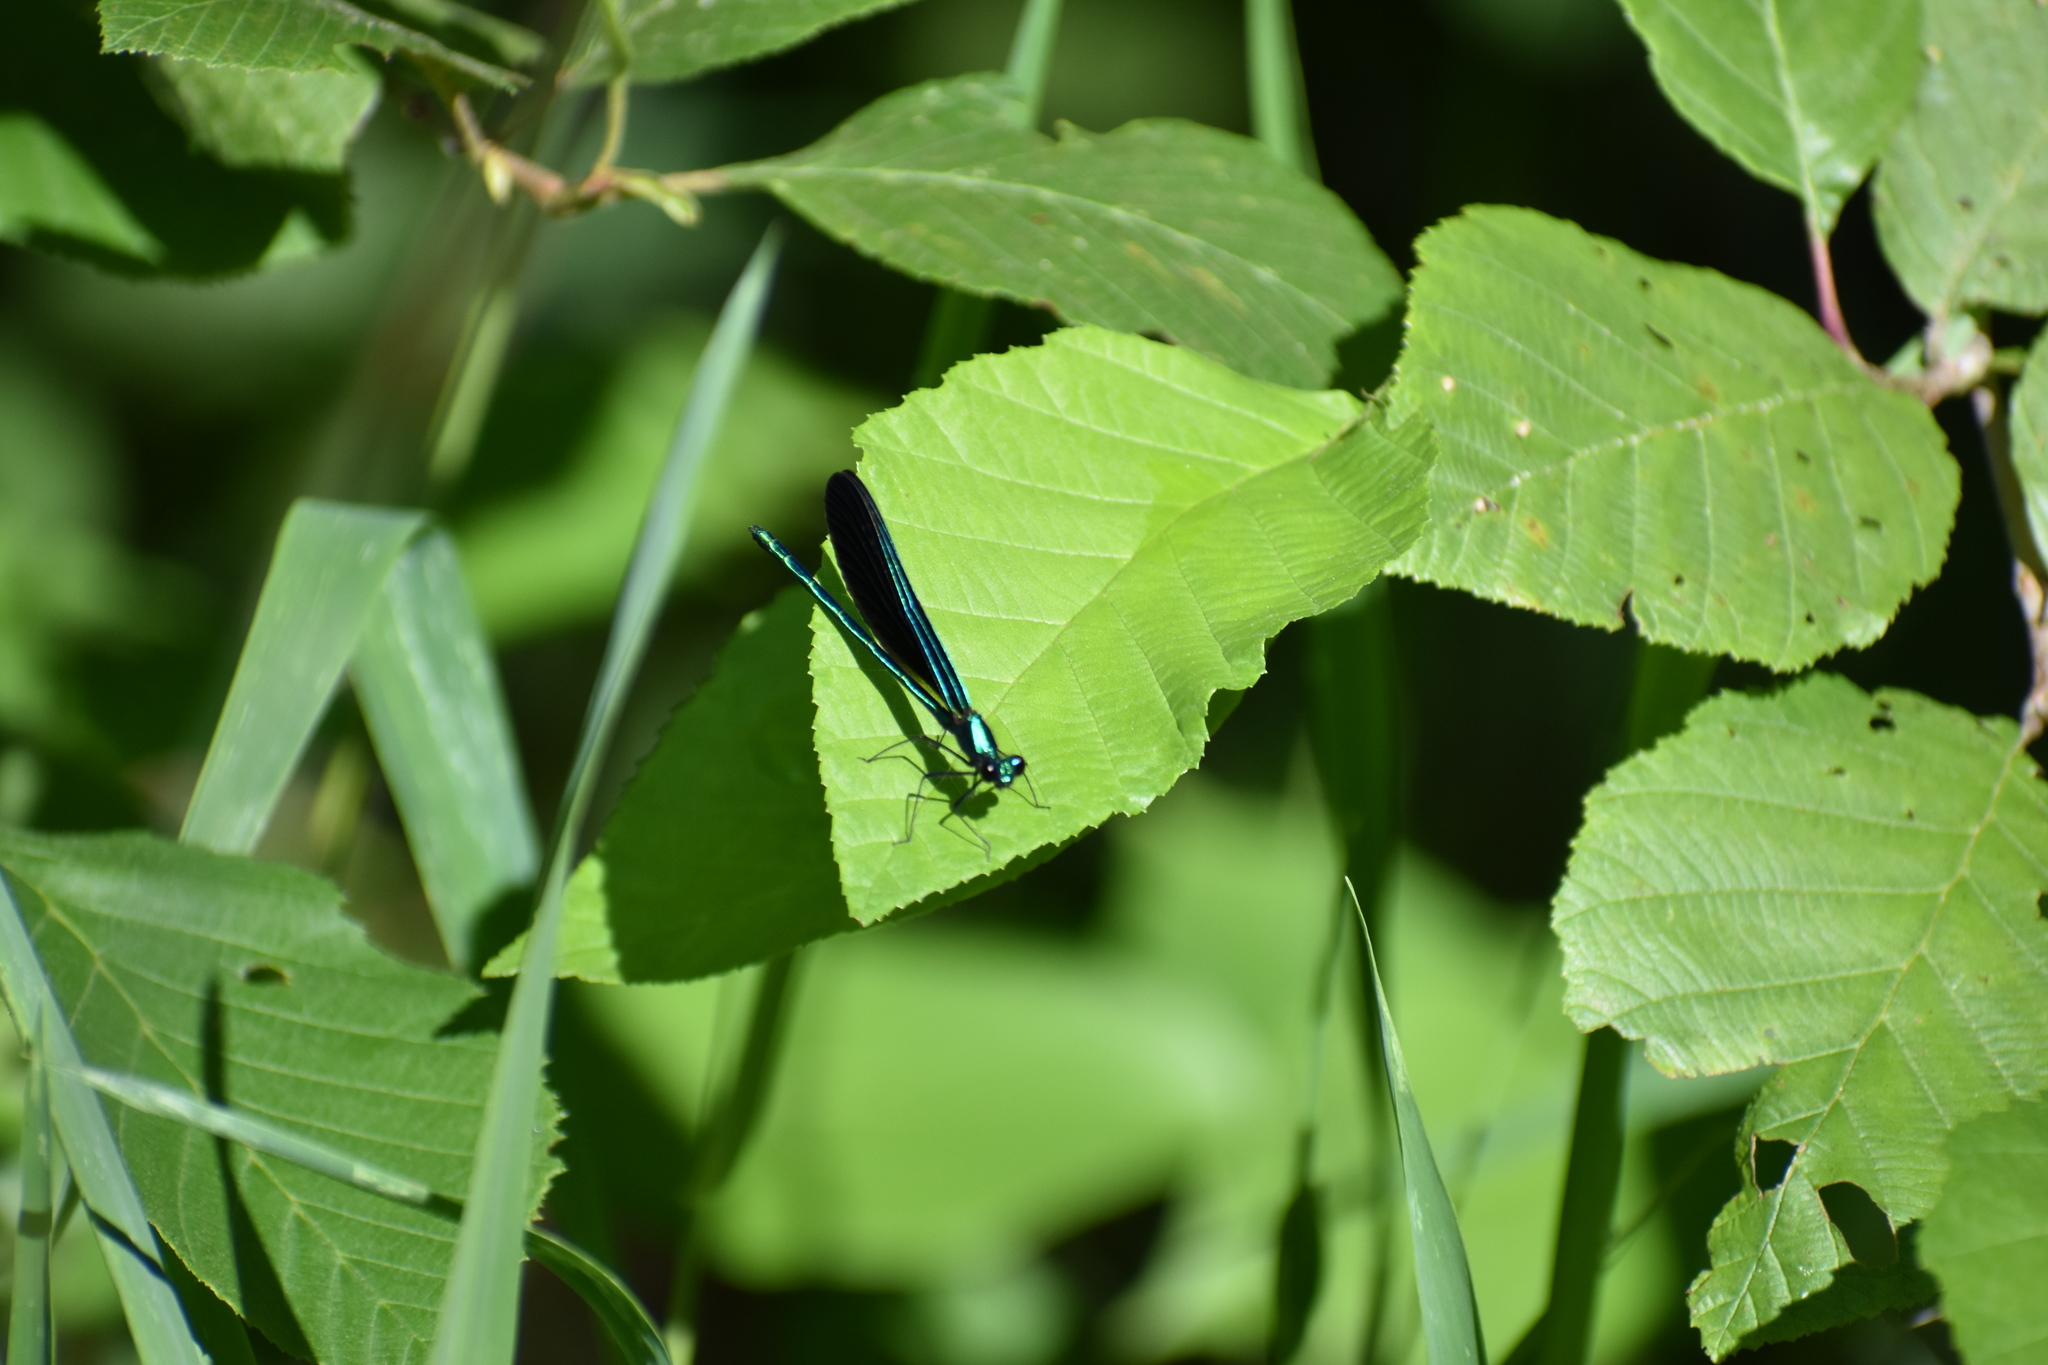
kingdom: Animalia
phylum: Arthropoda
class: Insecta
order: Odonata
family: Calopterygidae
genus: Calopteryx
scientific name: Calopteryx maculata
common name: Ebony jewelwing
